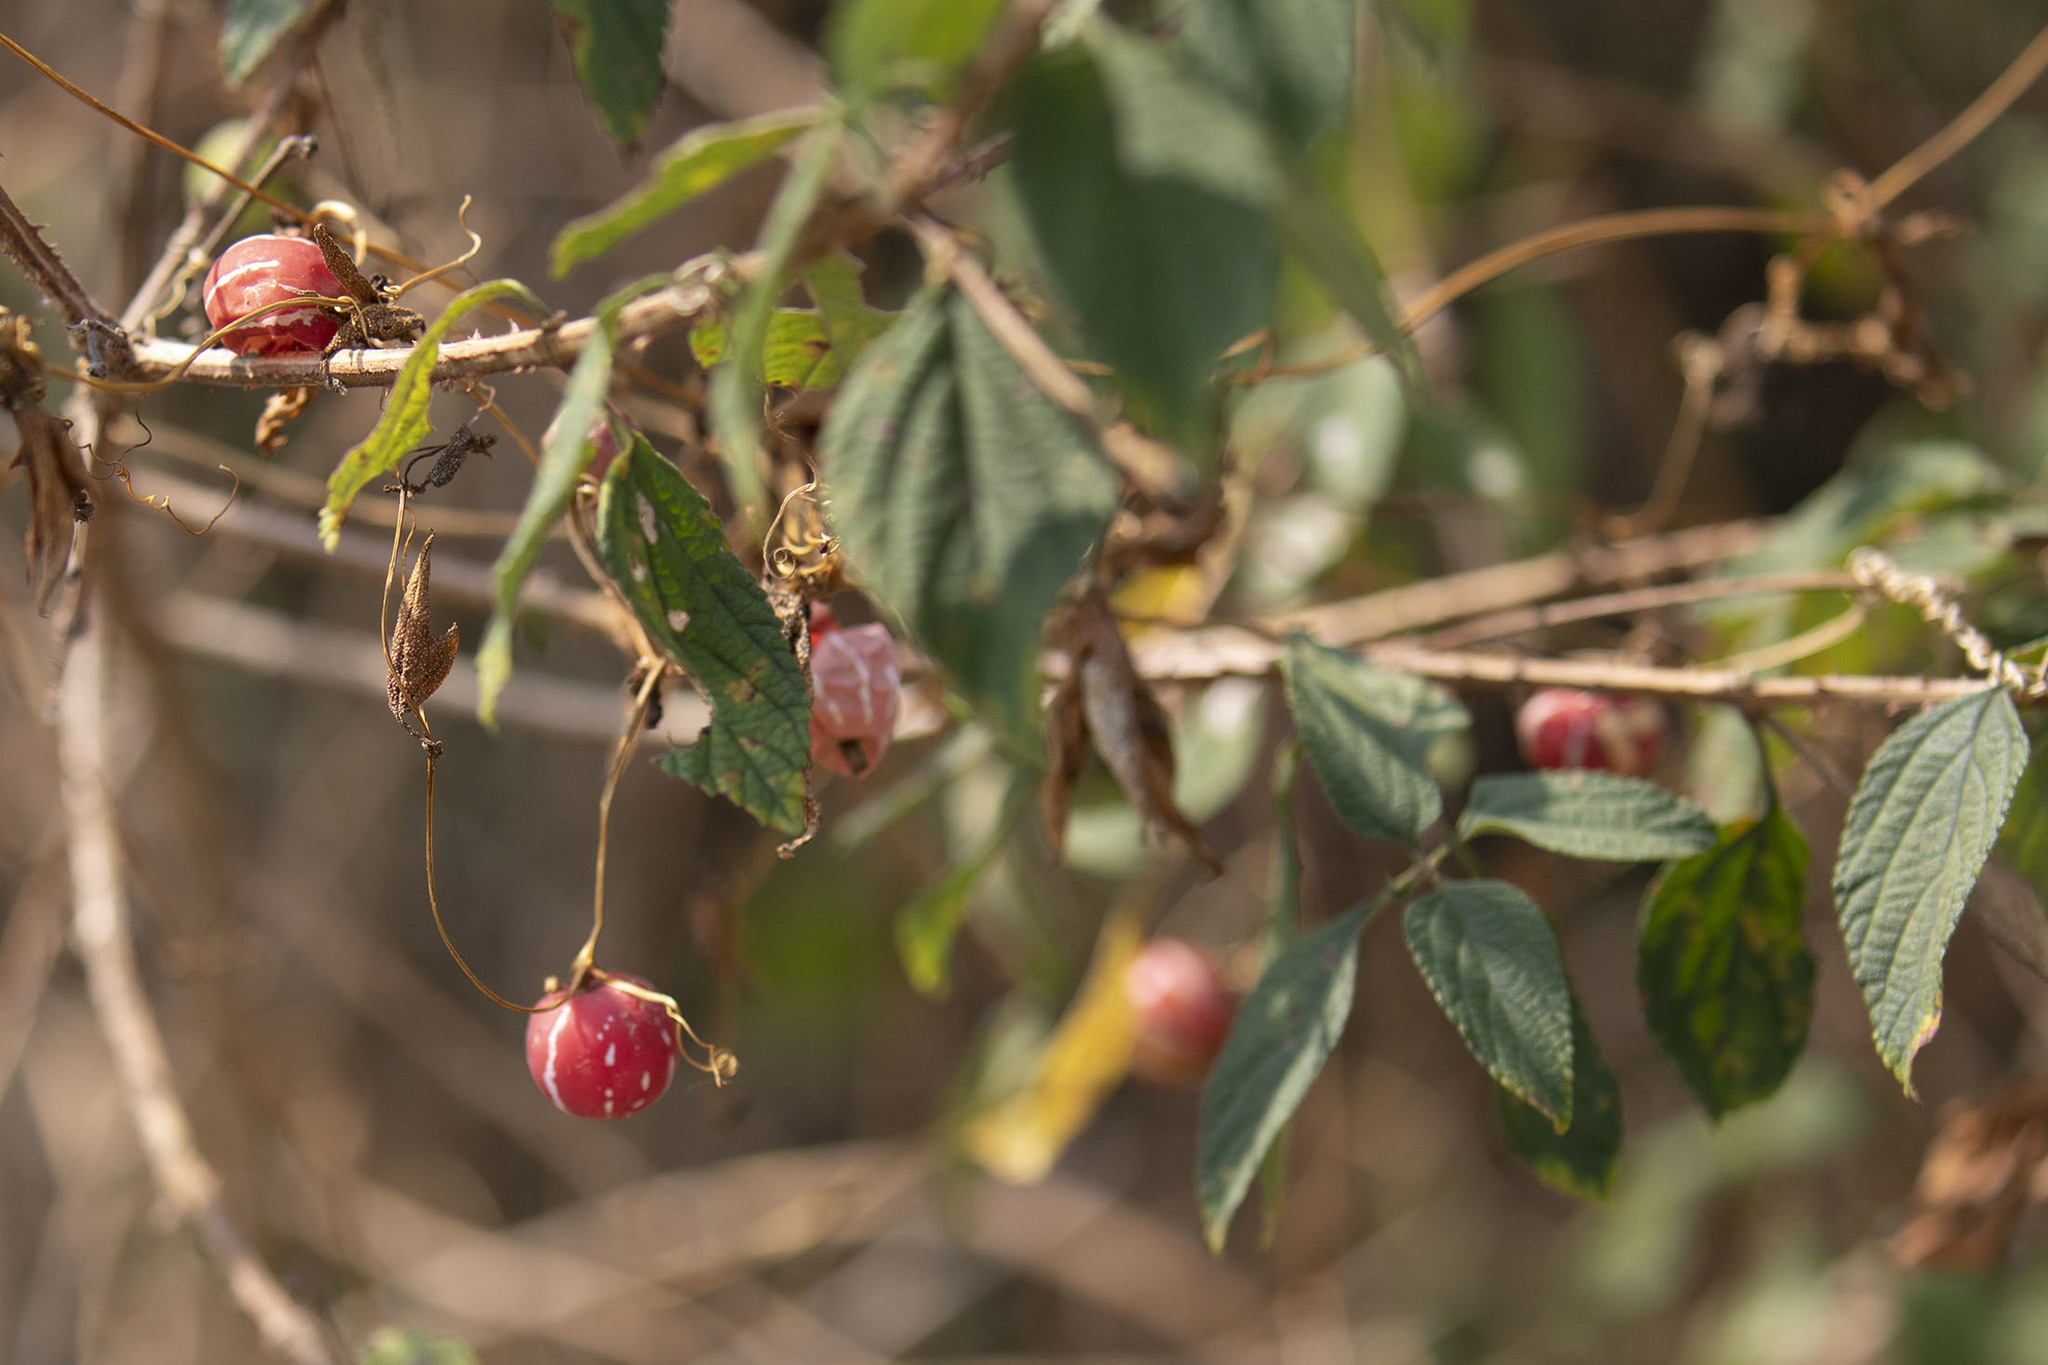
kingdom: Plantae
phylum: Tracheophyta
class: Magnoliopsida
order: Cucurbitales
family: Cucurbitaceae
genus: Diplocyclos
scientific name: Diplocyclos palmatus
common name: Striped-cucumber
